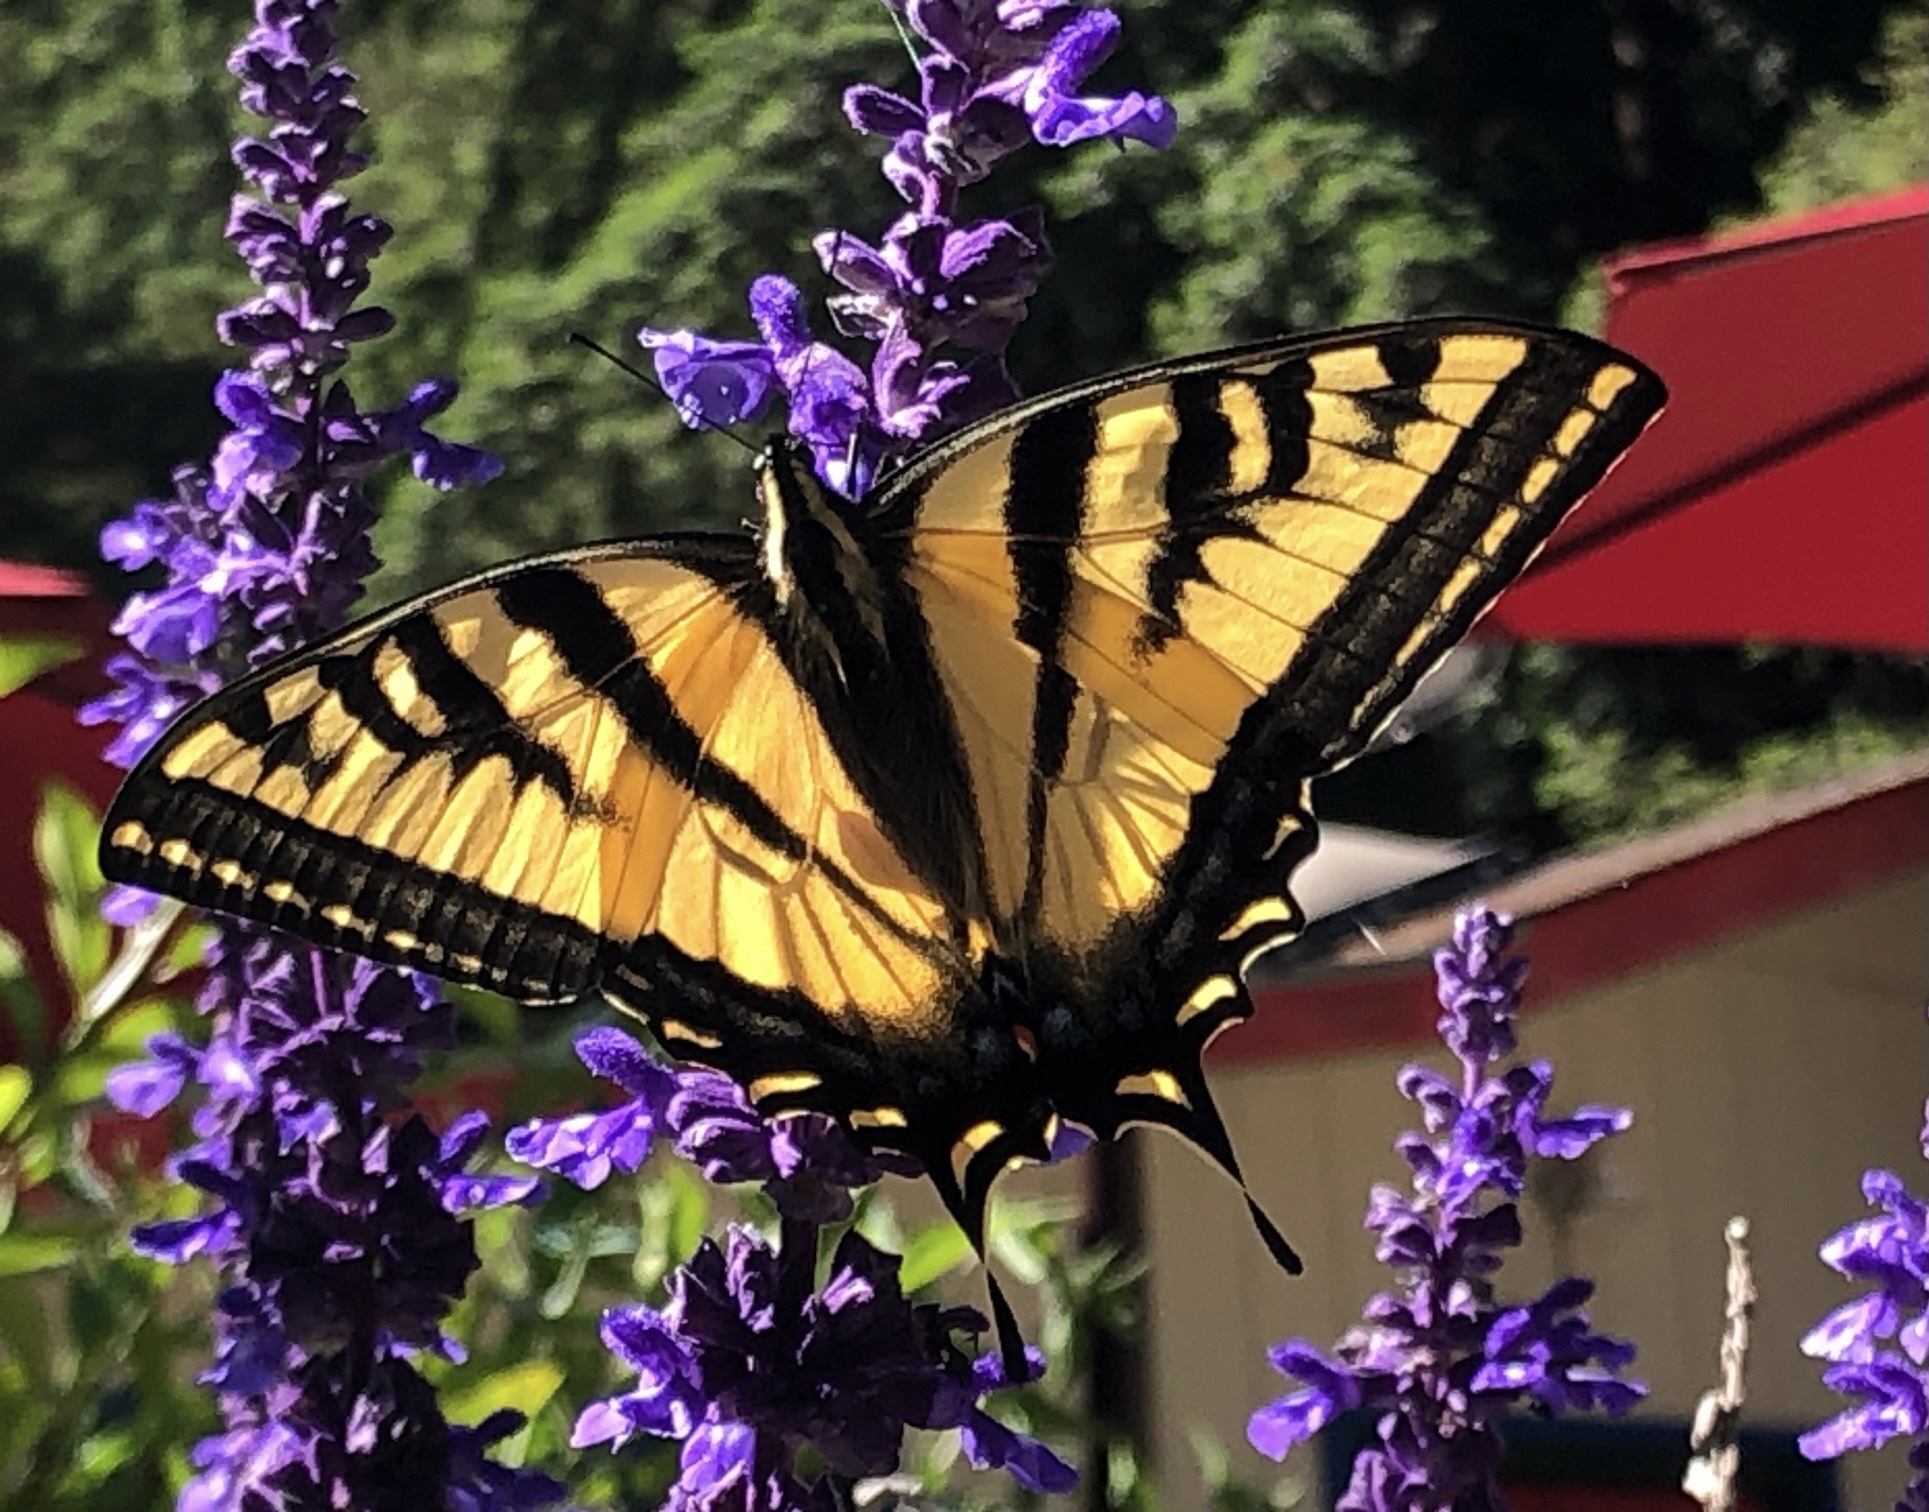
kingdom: Animalia
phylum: Arthropoda
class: Insecta
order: Lepidoptera
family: Papilionidae
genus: Papilio
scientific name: Papilio rutulus
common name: Western tiger swallowtail
